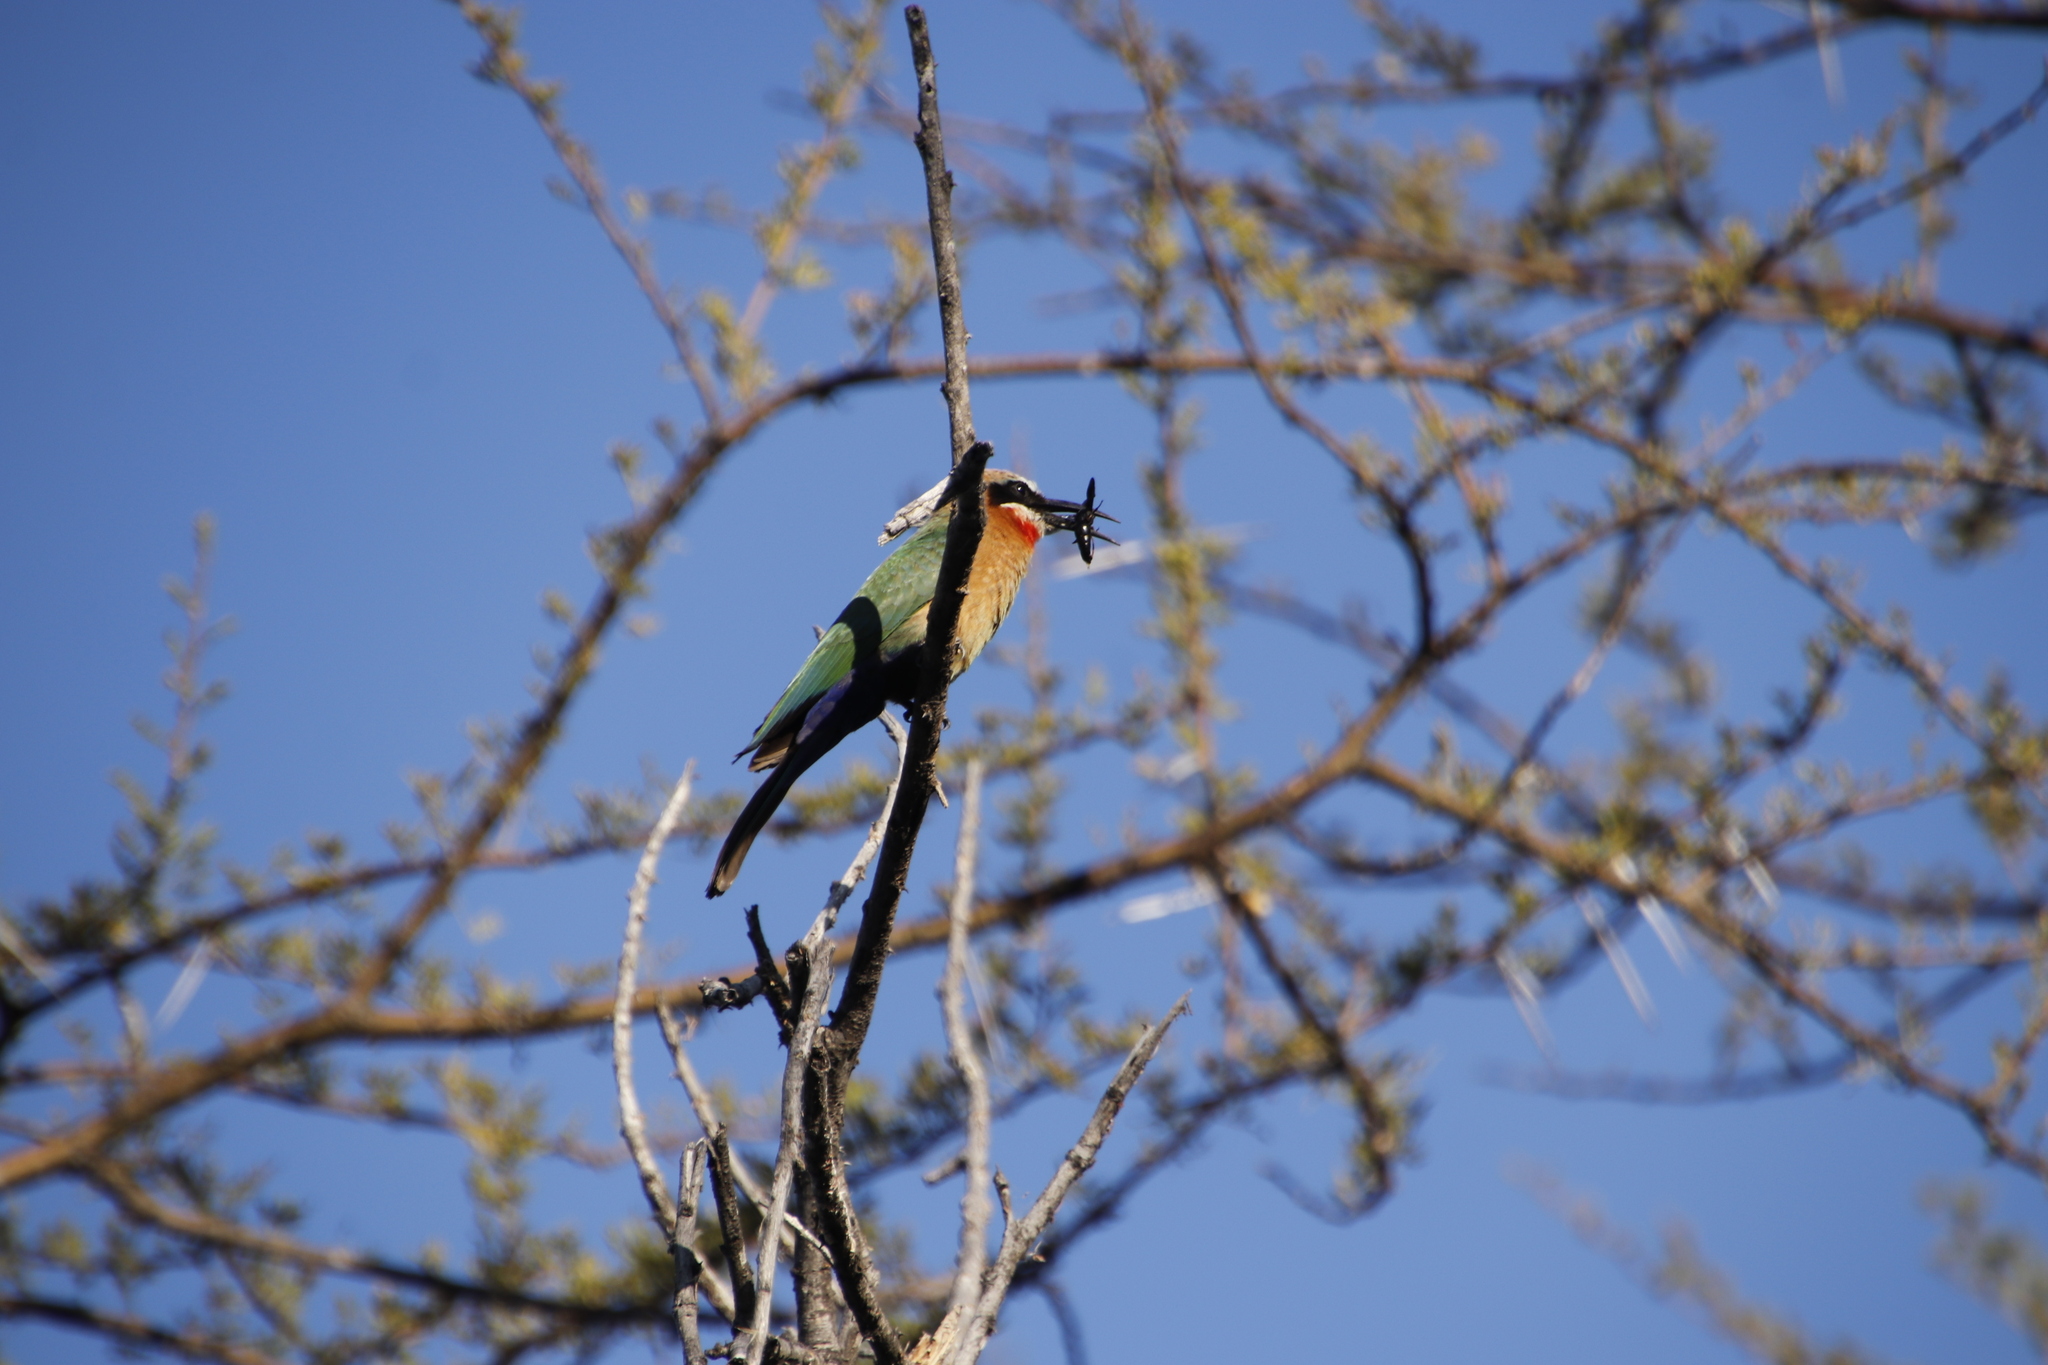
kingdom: Animalia
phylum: Chordata
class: Aves
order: Coraciiformes
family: Meropidae
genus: Merops
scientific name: Merops bullockoides
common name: White-fronted bee-eater
